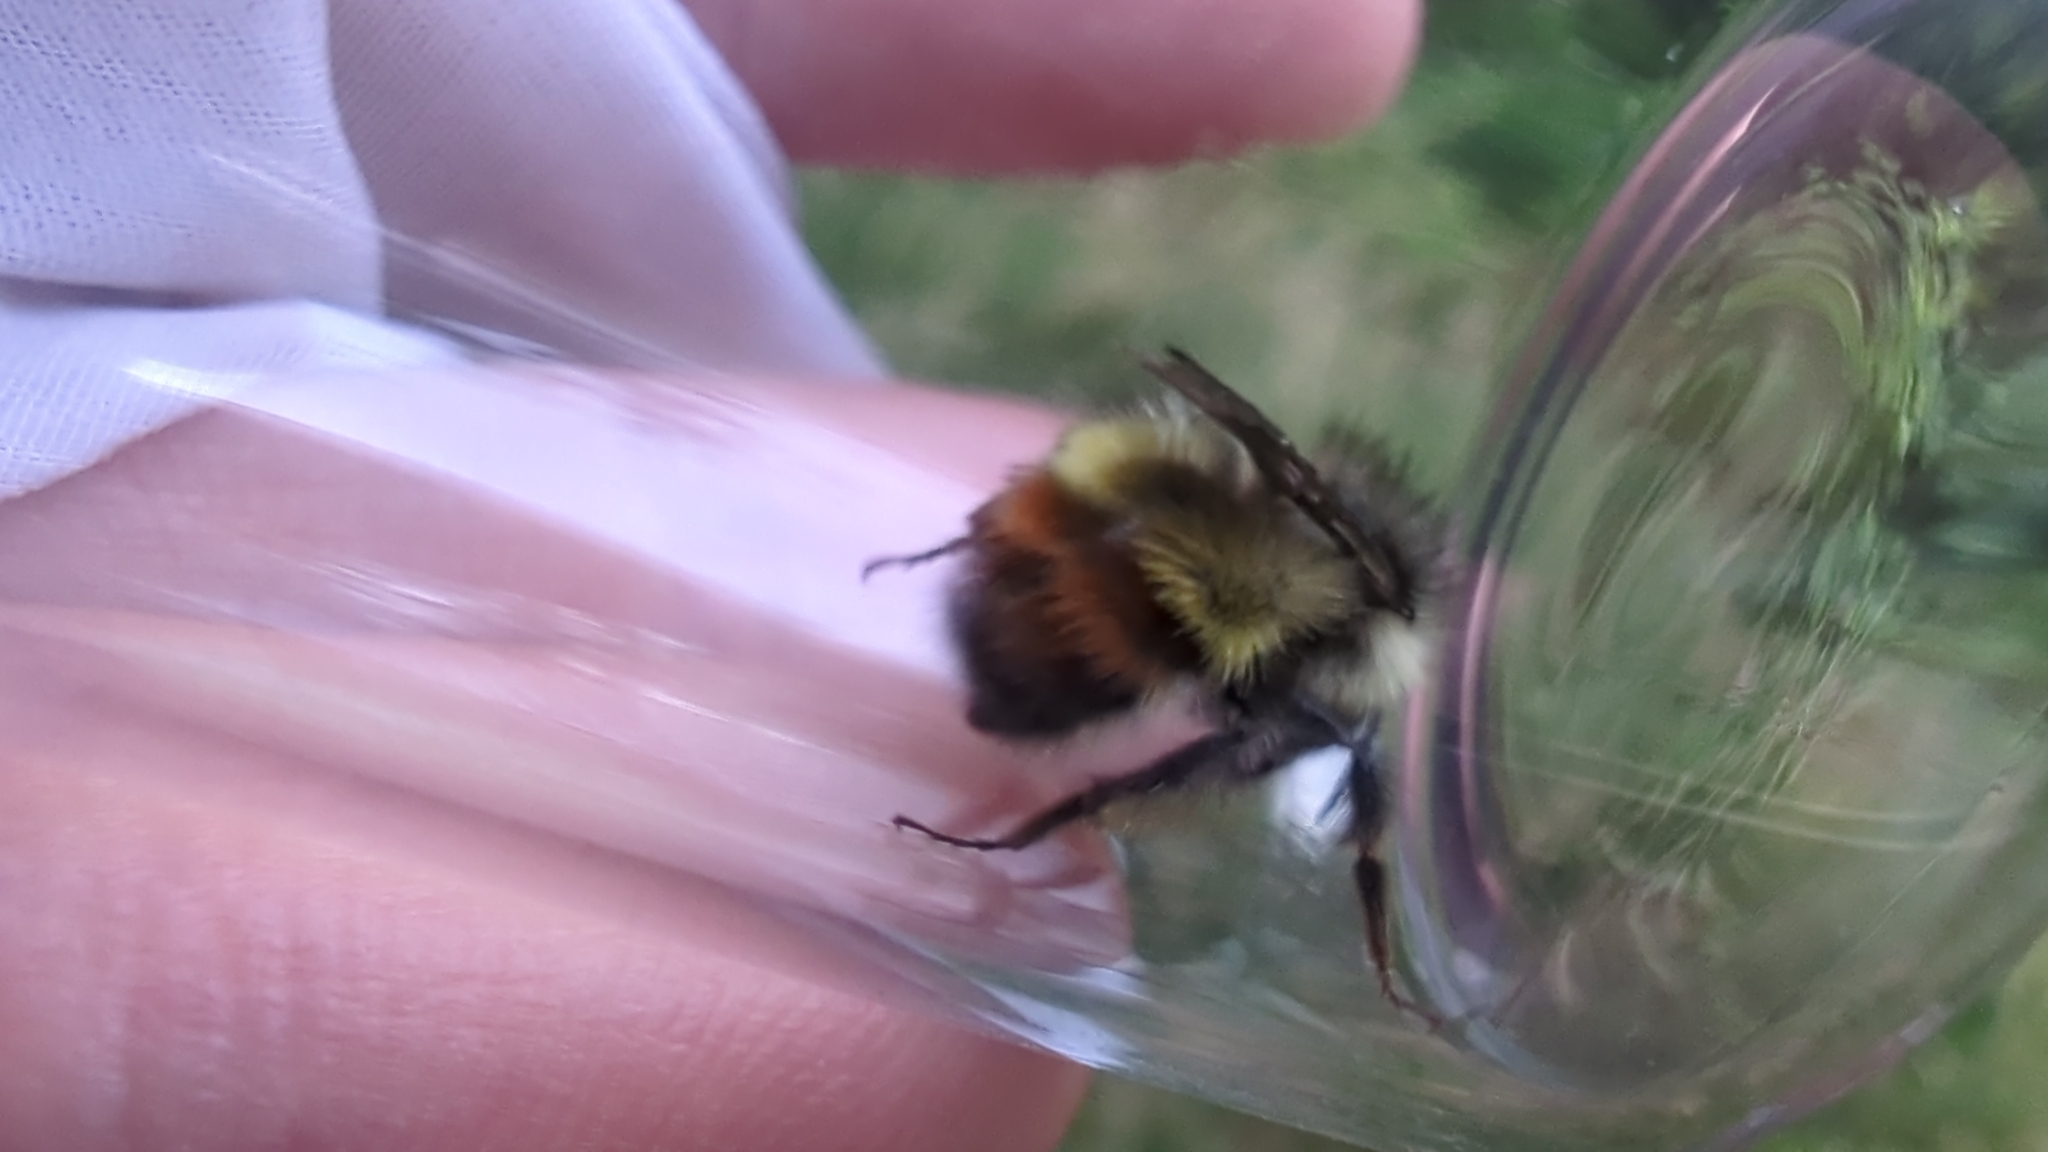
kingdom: Animalia
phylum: Arthropoda
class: Insecta
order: Hymenoptera
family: Apidae
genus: Bombus
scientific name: Bombus flavifrons
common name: Yellow head bumble bee
